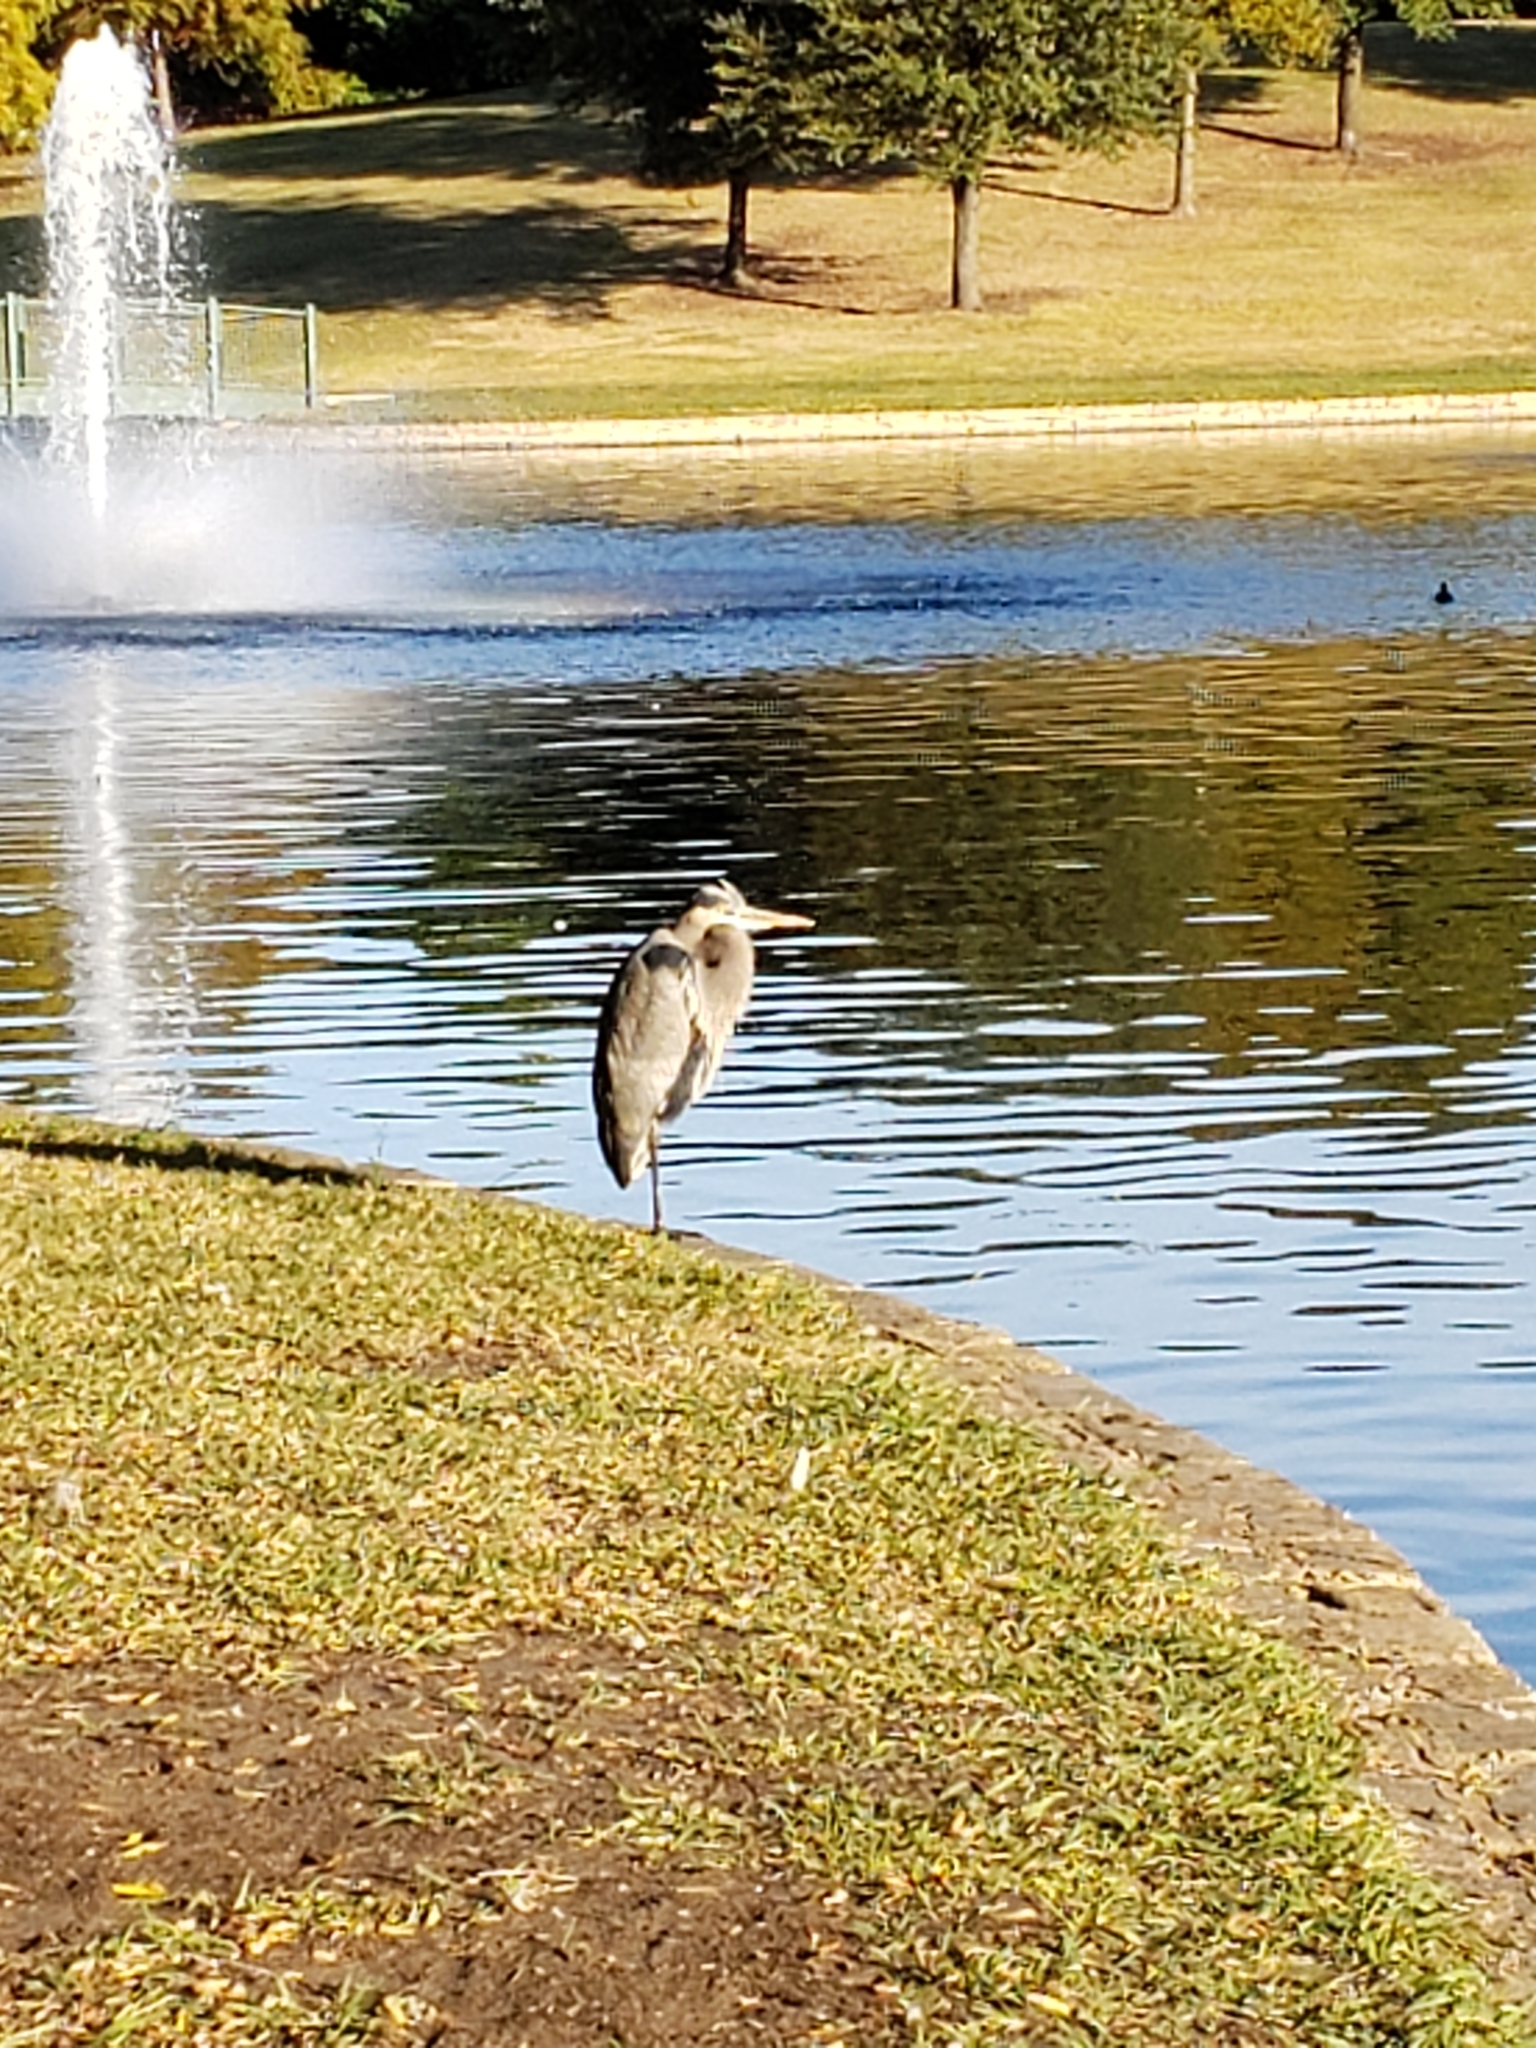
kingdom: Animalia
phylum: Chordata
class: Aves
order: Pelecaniformes
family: Ardeidae
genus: Ardea
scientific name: Ardea herodias
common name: Great blue heron
